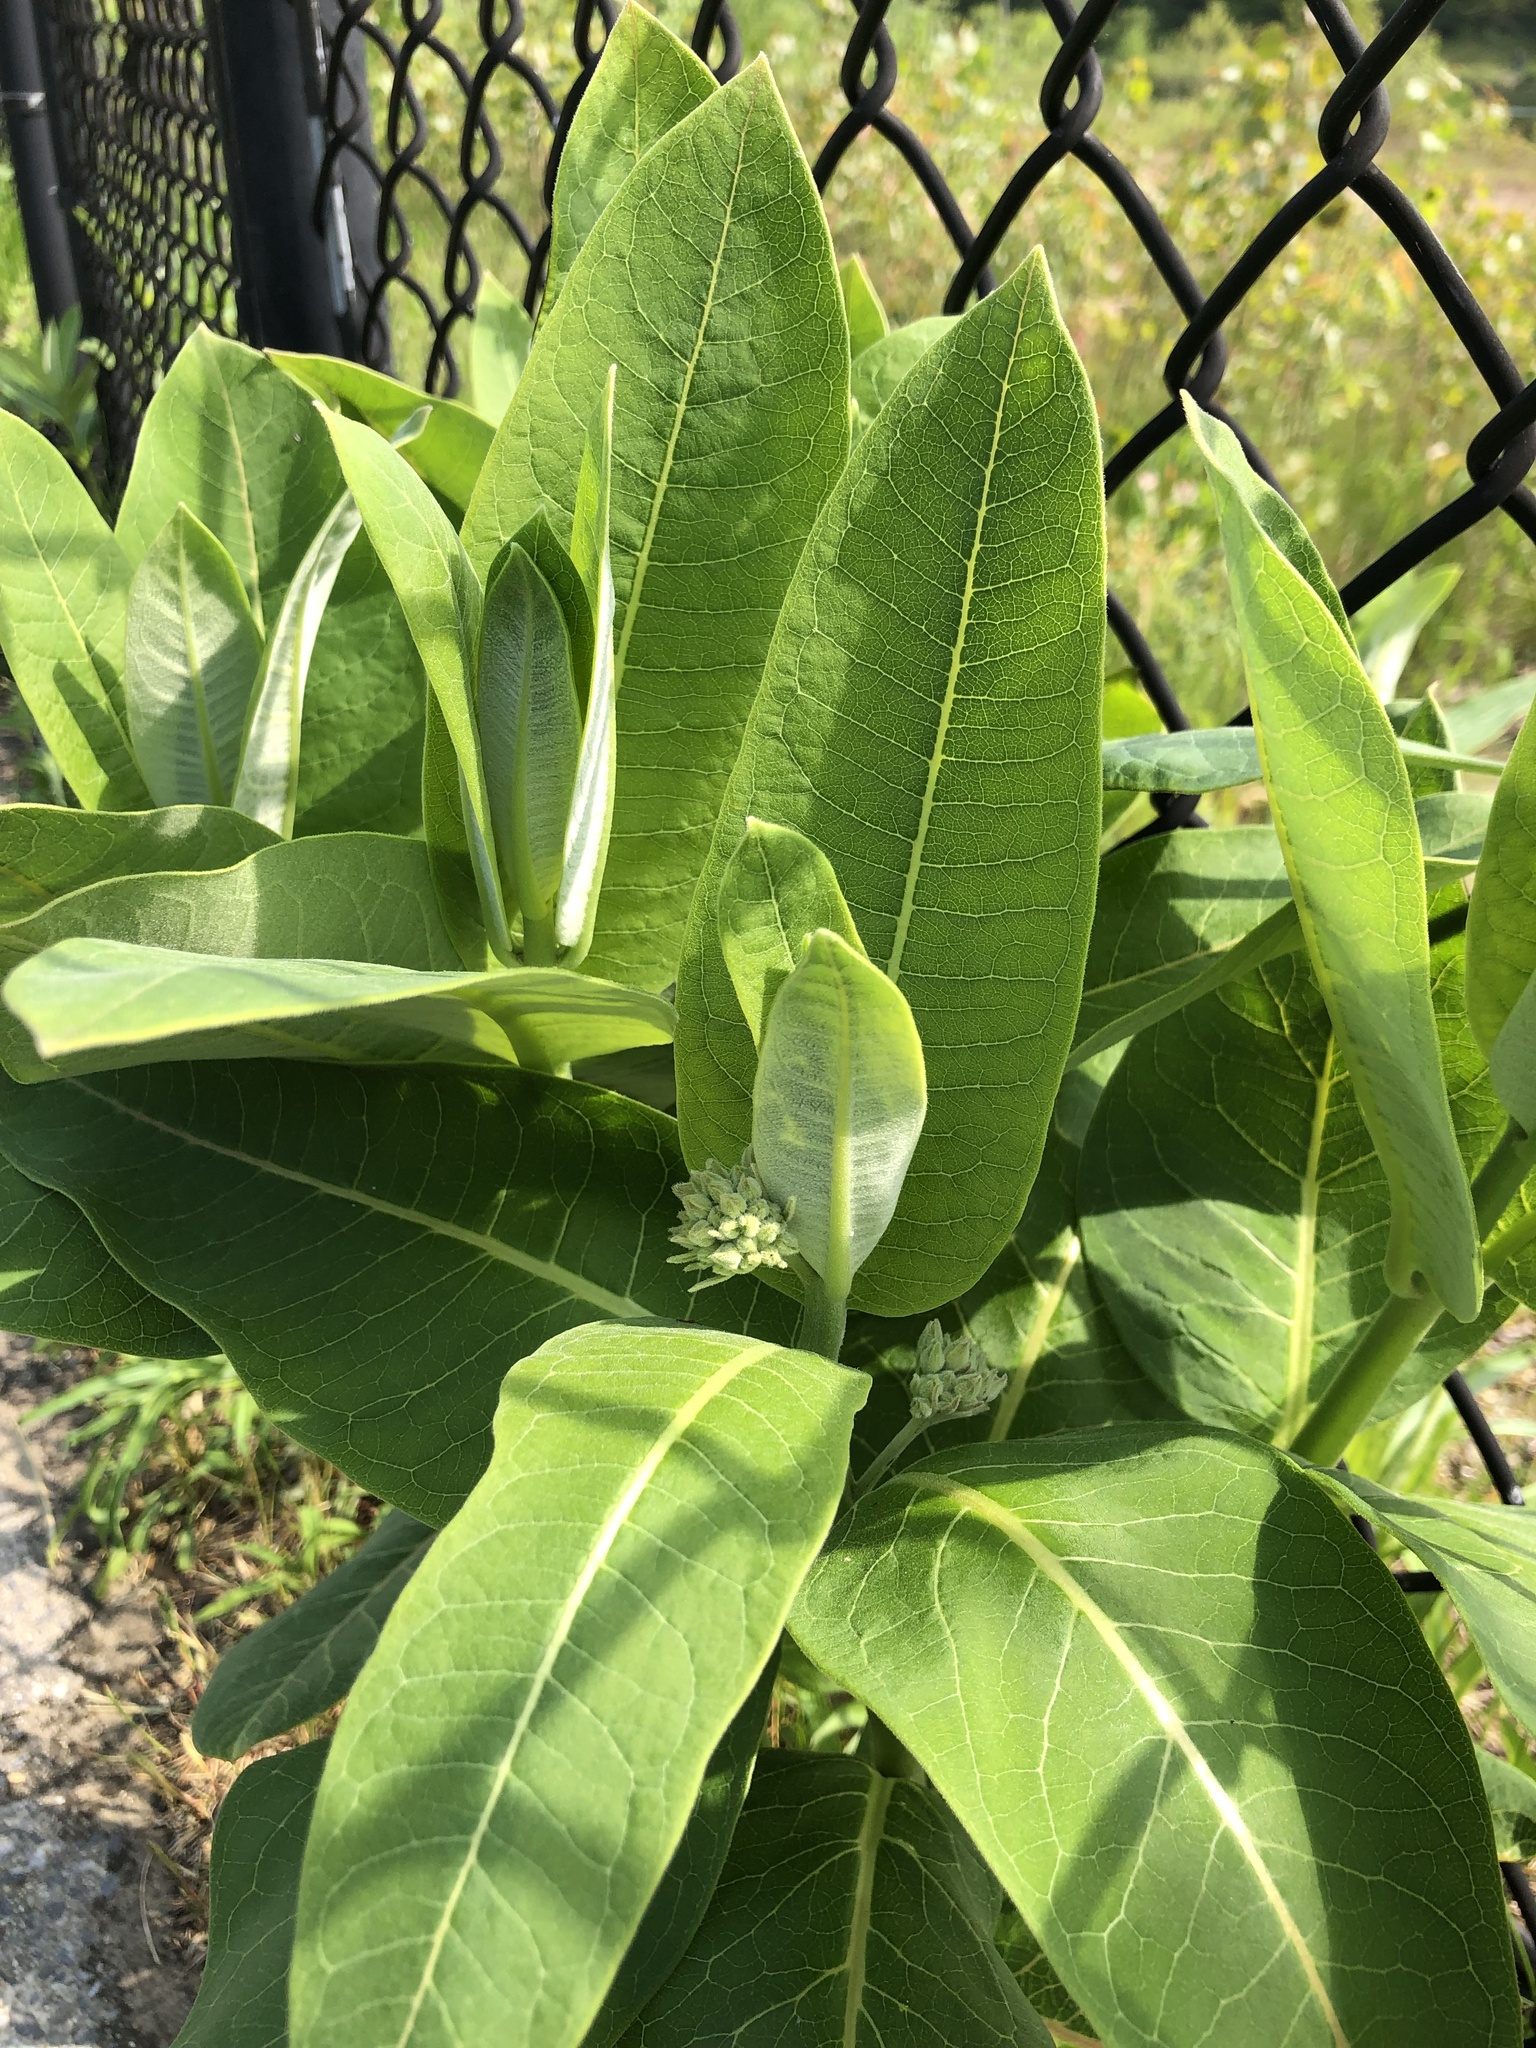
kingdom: Plantae
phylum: Tracheophyta
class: Magnoliopsida
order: Gentianales
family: Apocynaceae
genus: Asclepias
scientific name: Asclepias syriaca
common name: Common milkweed
